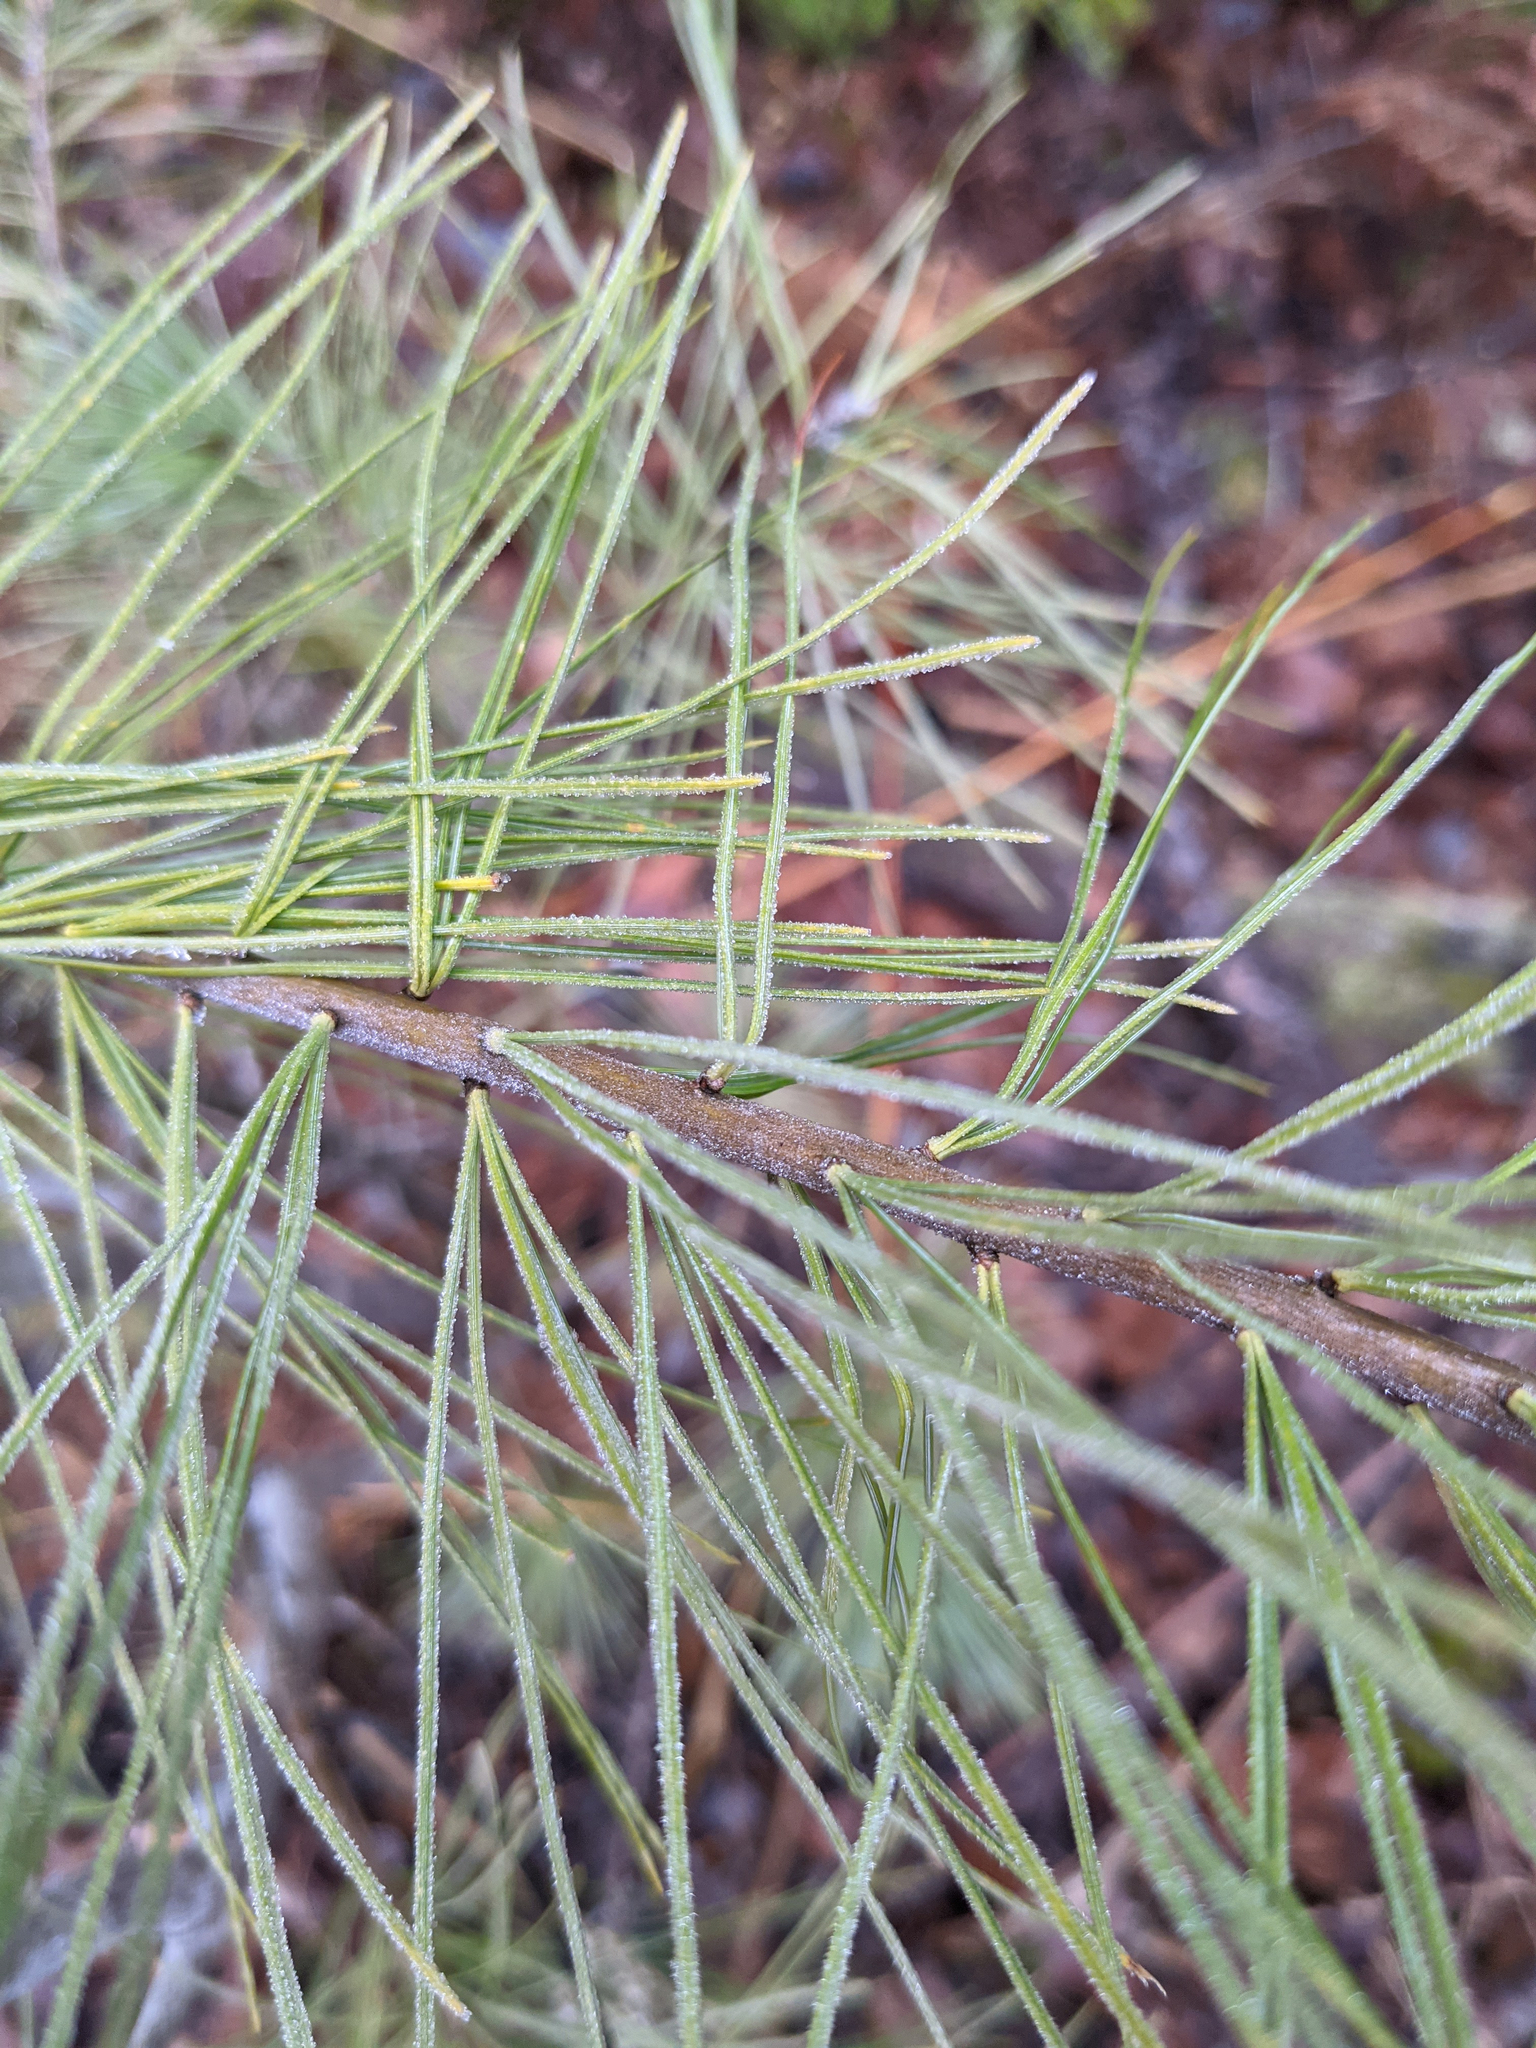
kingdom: Plantae
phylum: Tracheophyta
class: Pinopsida
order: Pinales
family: Pinaceae
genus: Pinus
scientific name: Pinus strobus
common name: Weymouth pine
